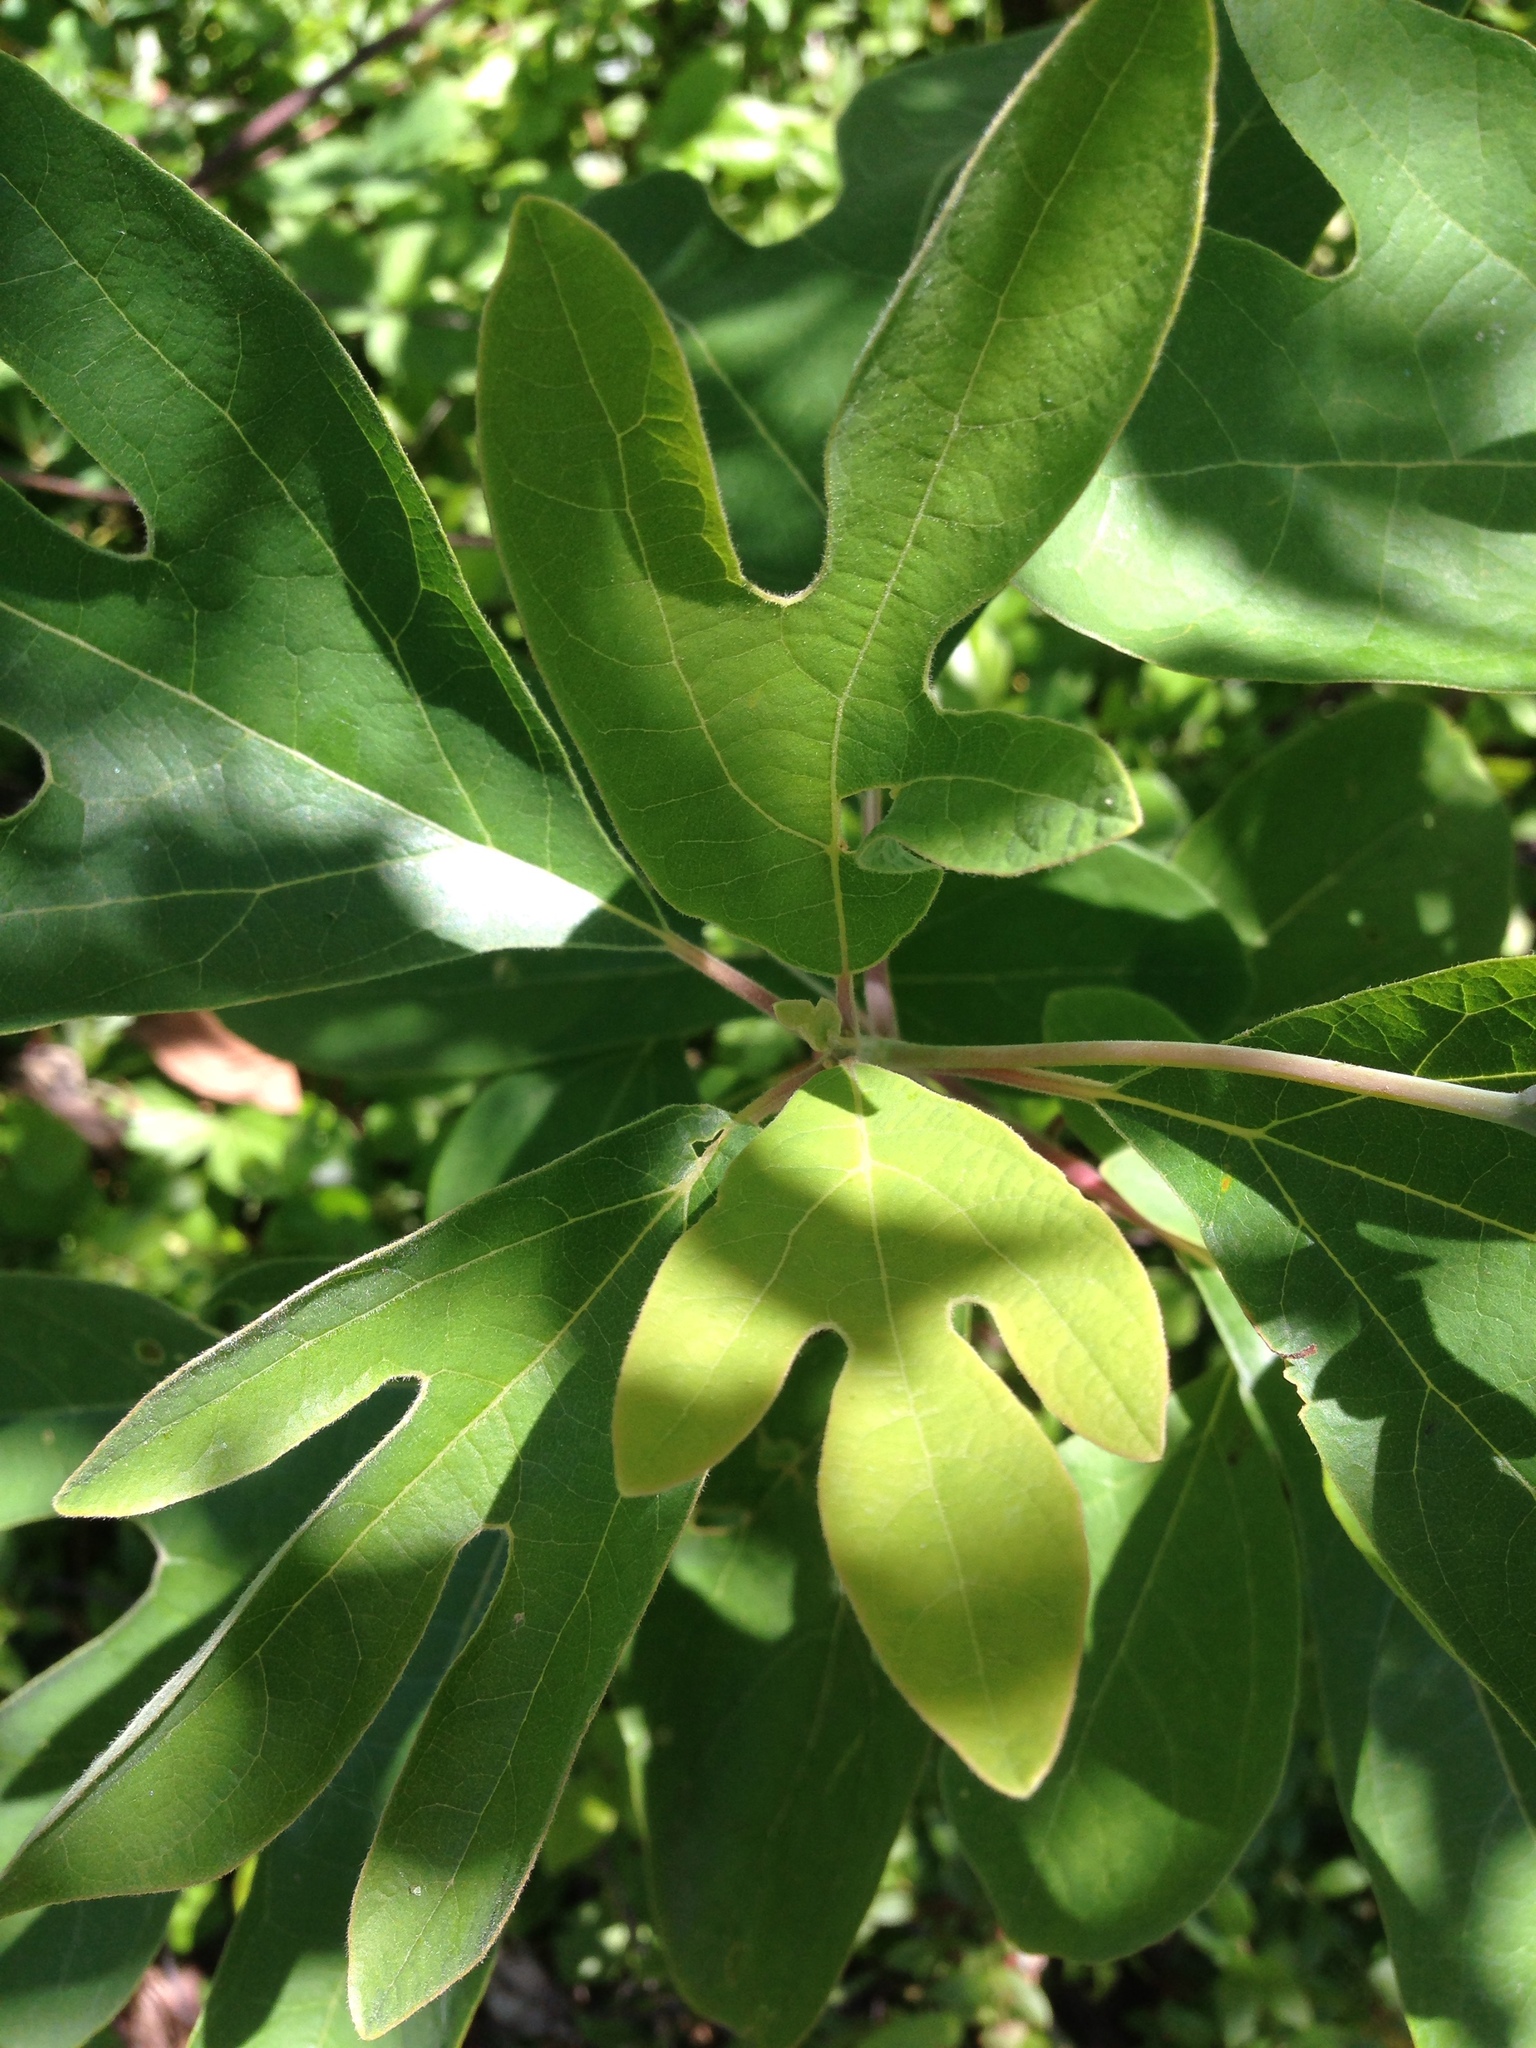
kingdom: Plantae
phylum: Tracheophyta
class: Magnoliopsida
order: Laurales
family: Lauraceae
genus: Sassafras
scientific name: Sassafras albidum
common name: Sassafras
